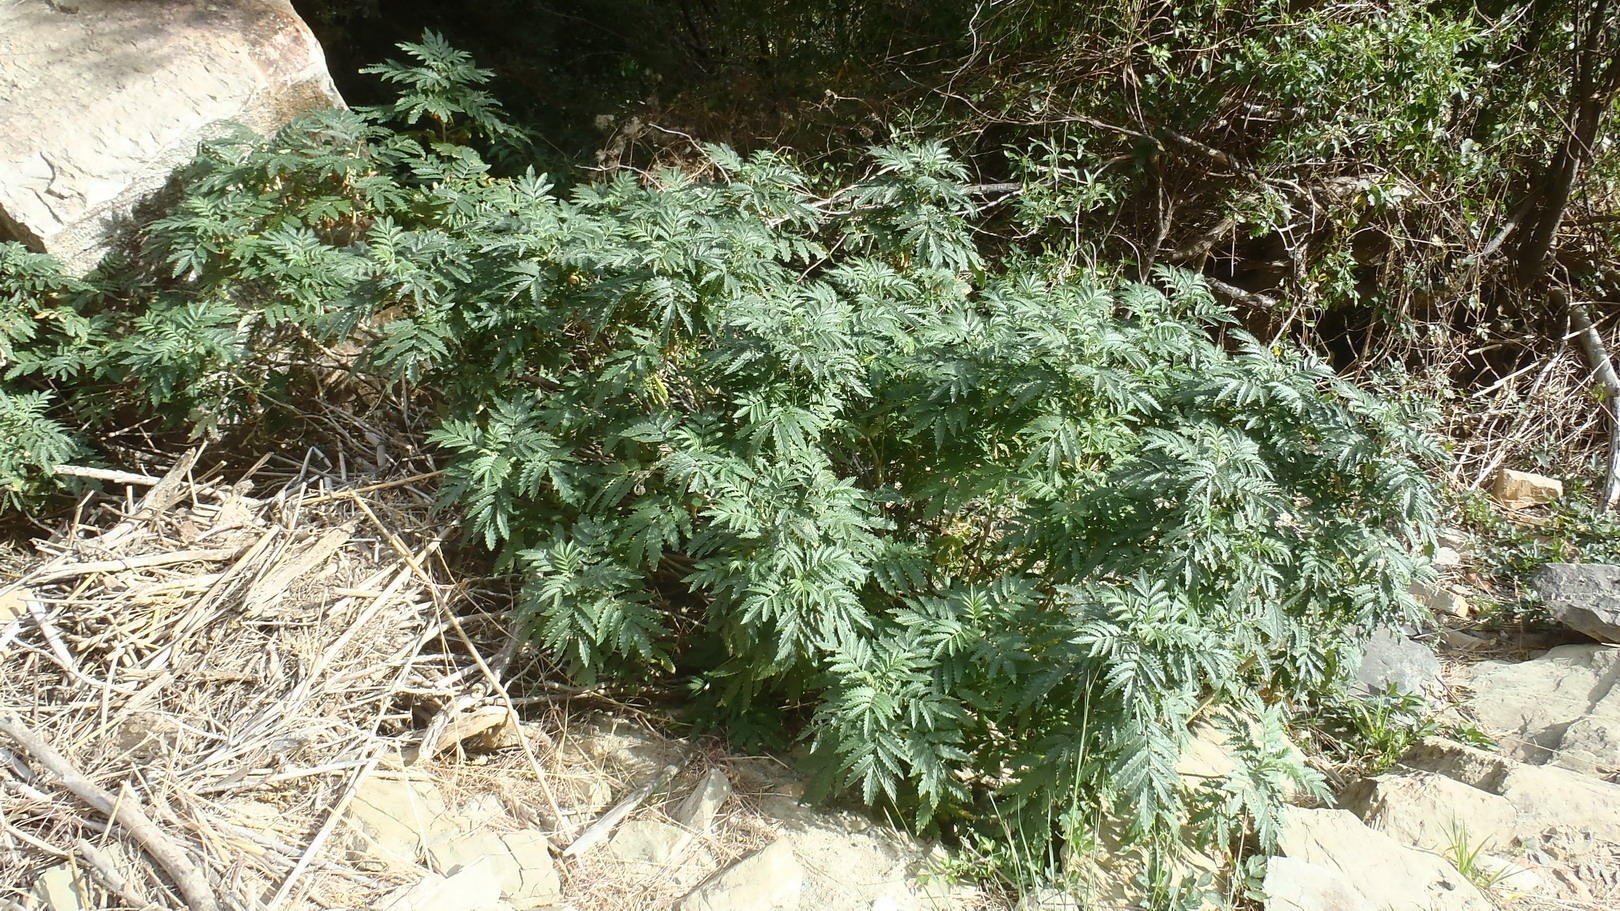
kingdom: Plantae
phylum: Tracheophyta
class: Magnoliopsida
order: Geraniales
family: Melianthaceae
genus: Melianthus
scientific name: Melianthus comosus
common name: Touch-me-not
